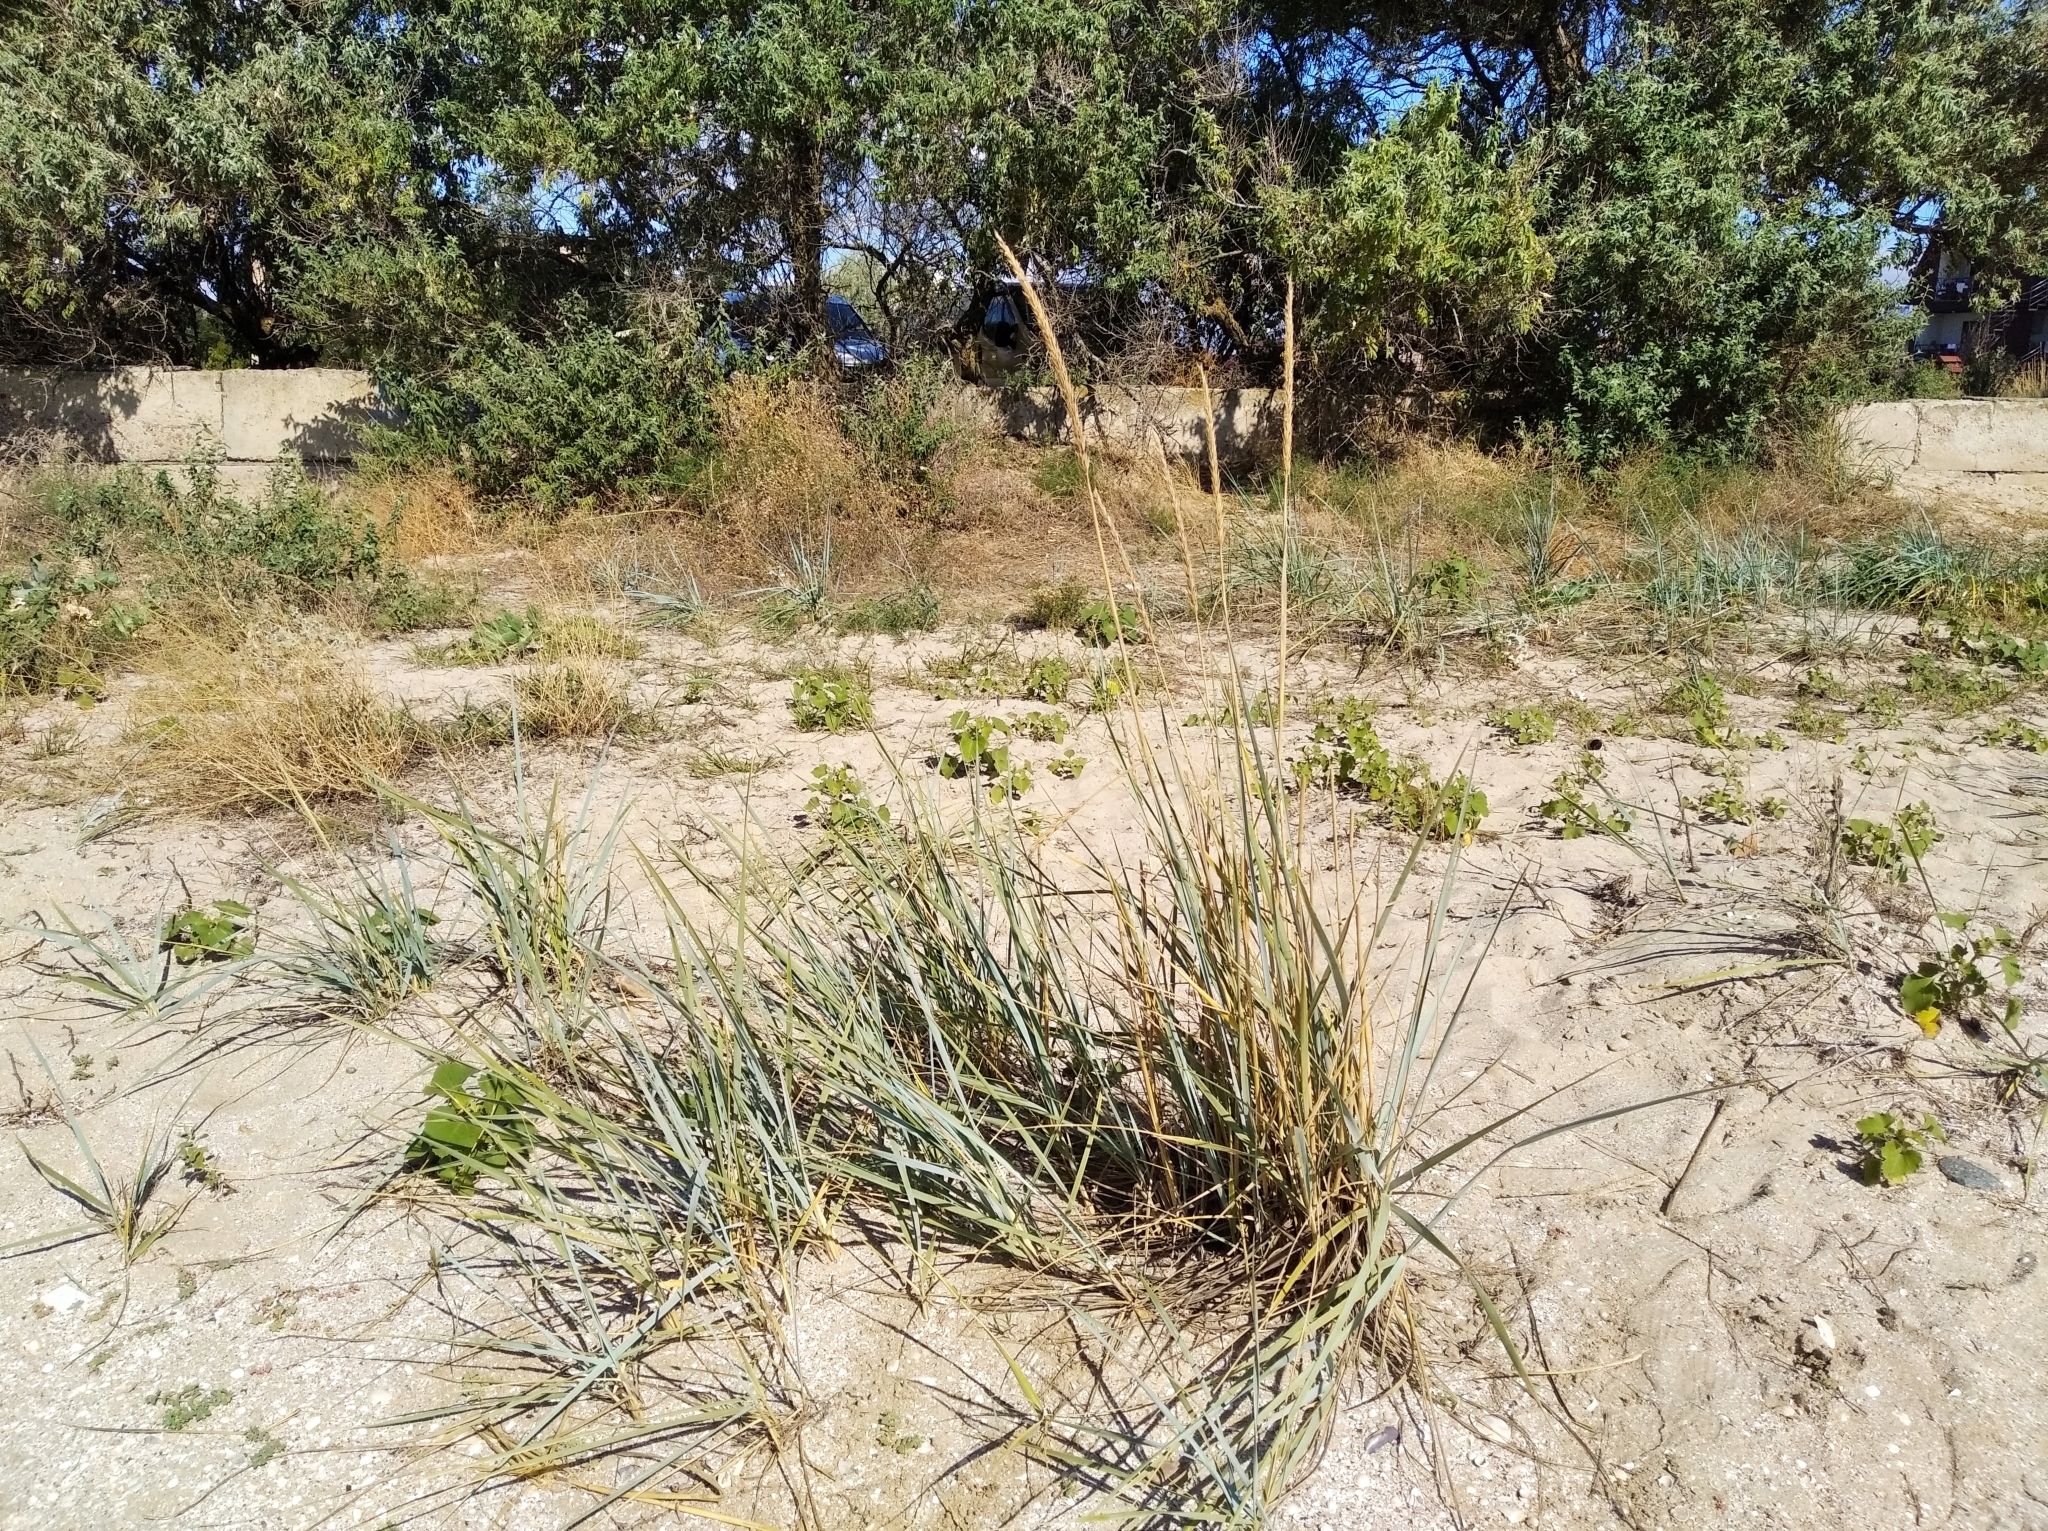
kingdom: Plantae
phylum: Tracheophyta
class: Liliopsida
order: Poales
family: Poaceae
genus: Leymus
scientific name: Leymus racemosus
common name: Mammoth wildrye
